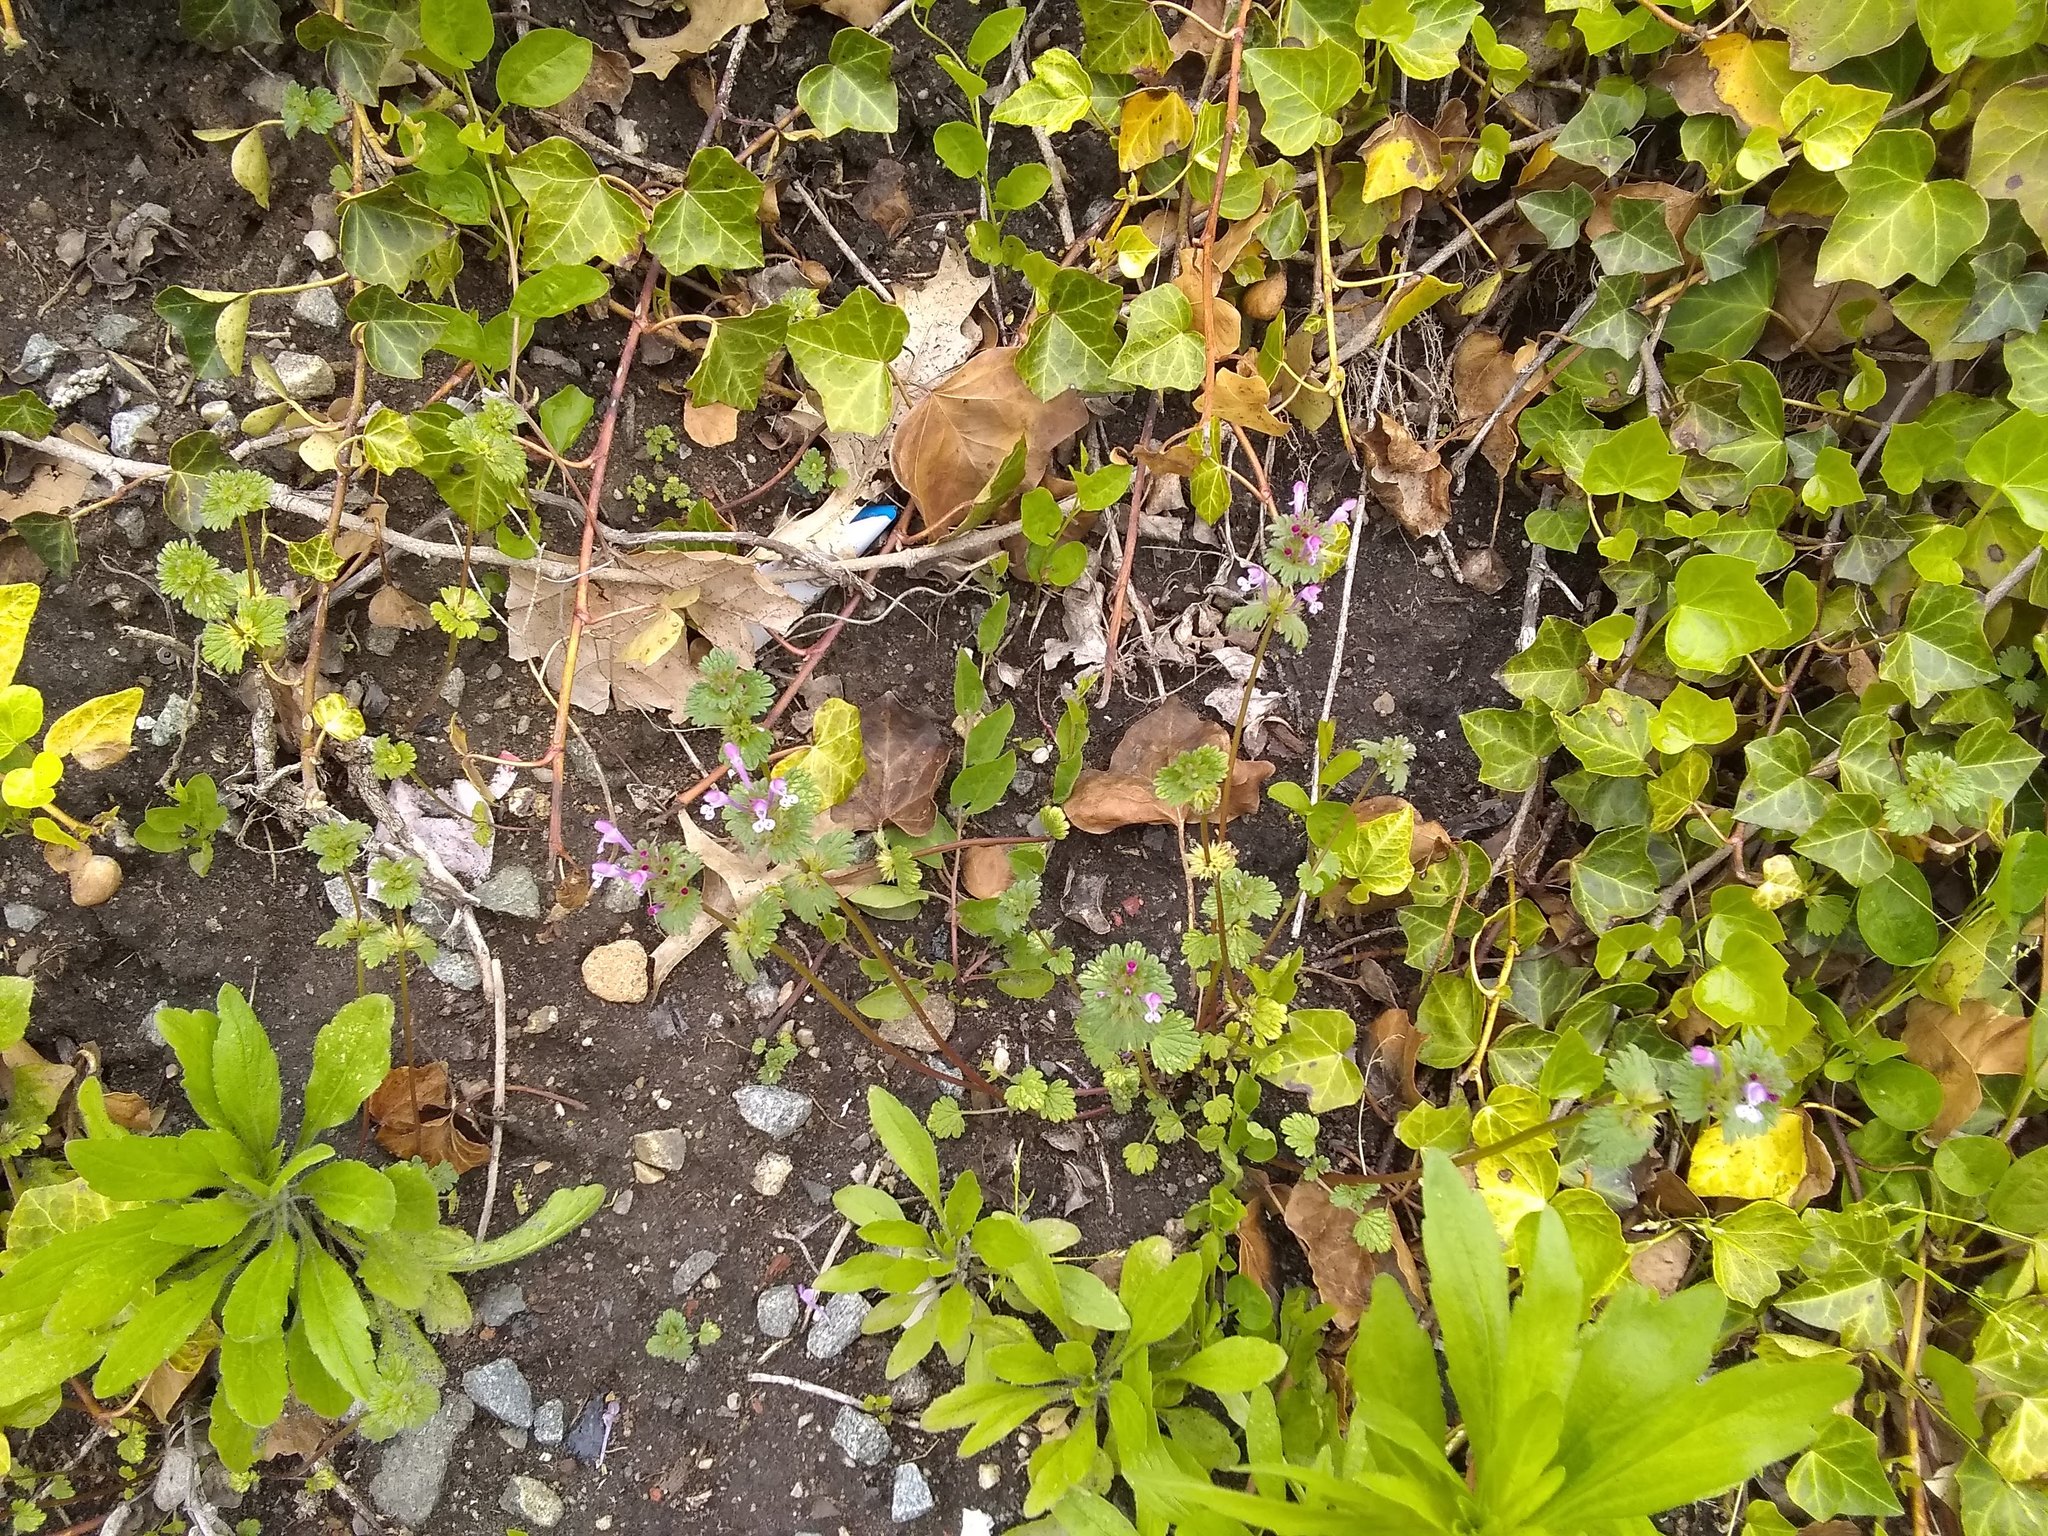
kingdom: Plantae
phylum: Tracheophyta
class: Magnoliopsida
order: Lamiales
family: Lamiaceae
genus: Lamium
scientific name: Lamium amplexicaule
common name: Henbit dead-nettle
